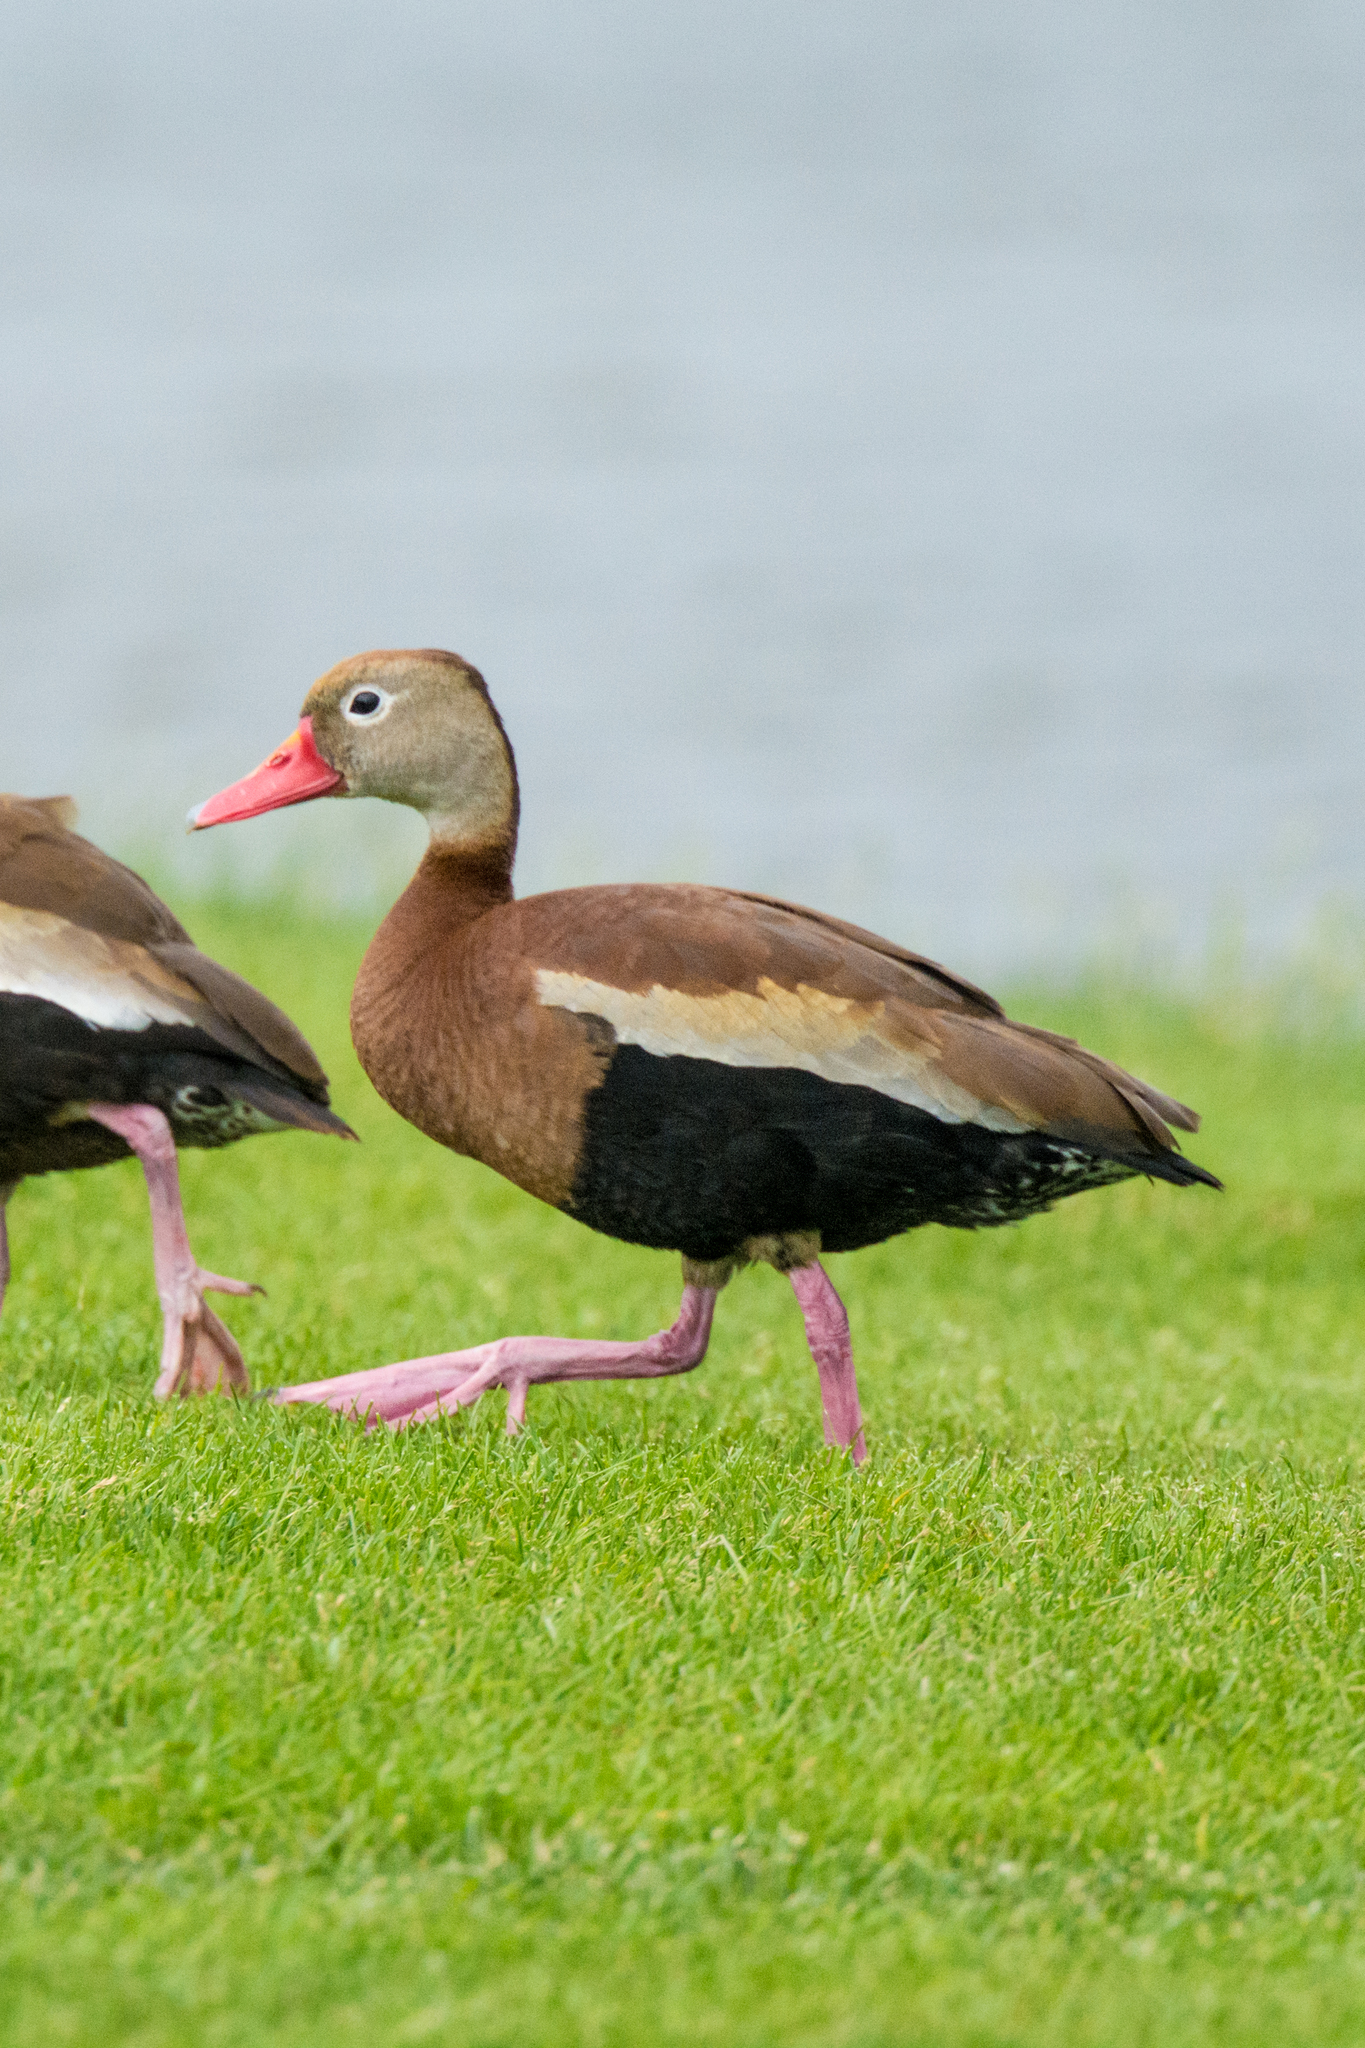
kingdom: Animalia
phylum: Chordata
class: Aves
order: Anseriformes
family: Anatidae
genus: Dendrocygna
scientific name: Dendrocygna autumnalis
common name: Black-bellied whistling duck
